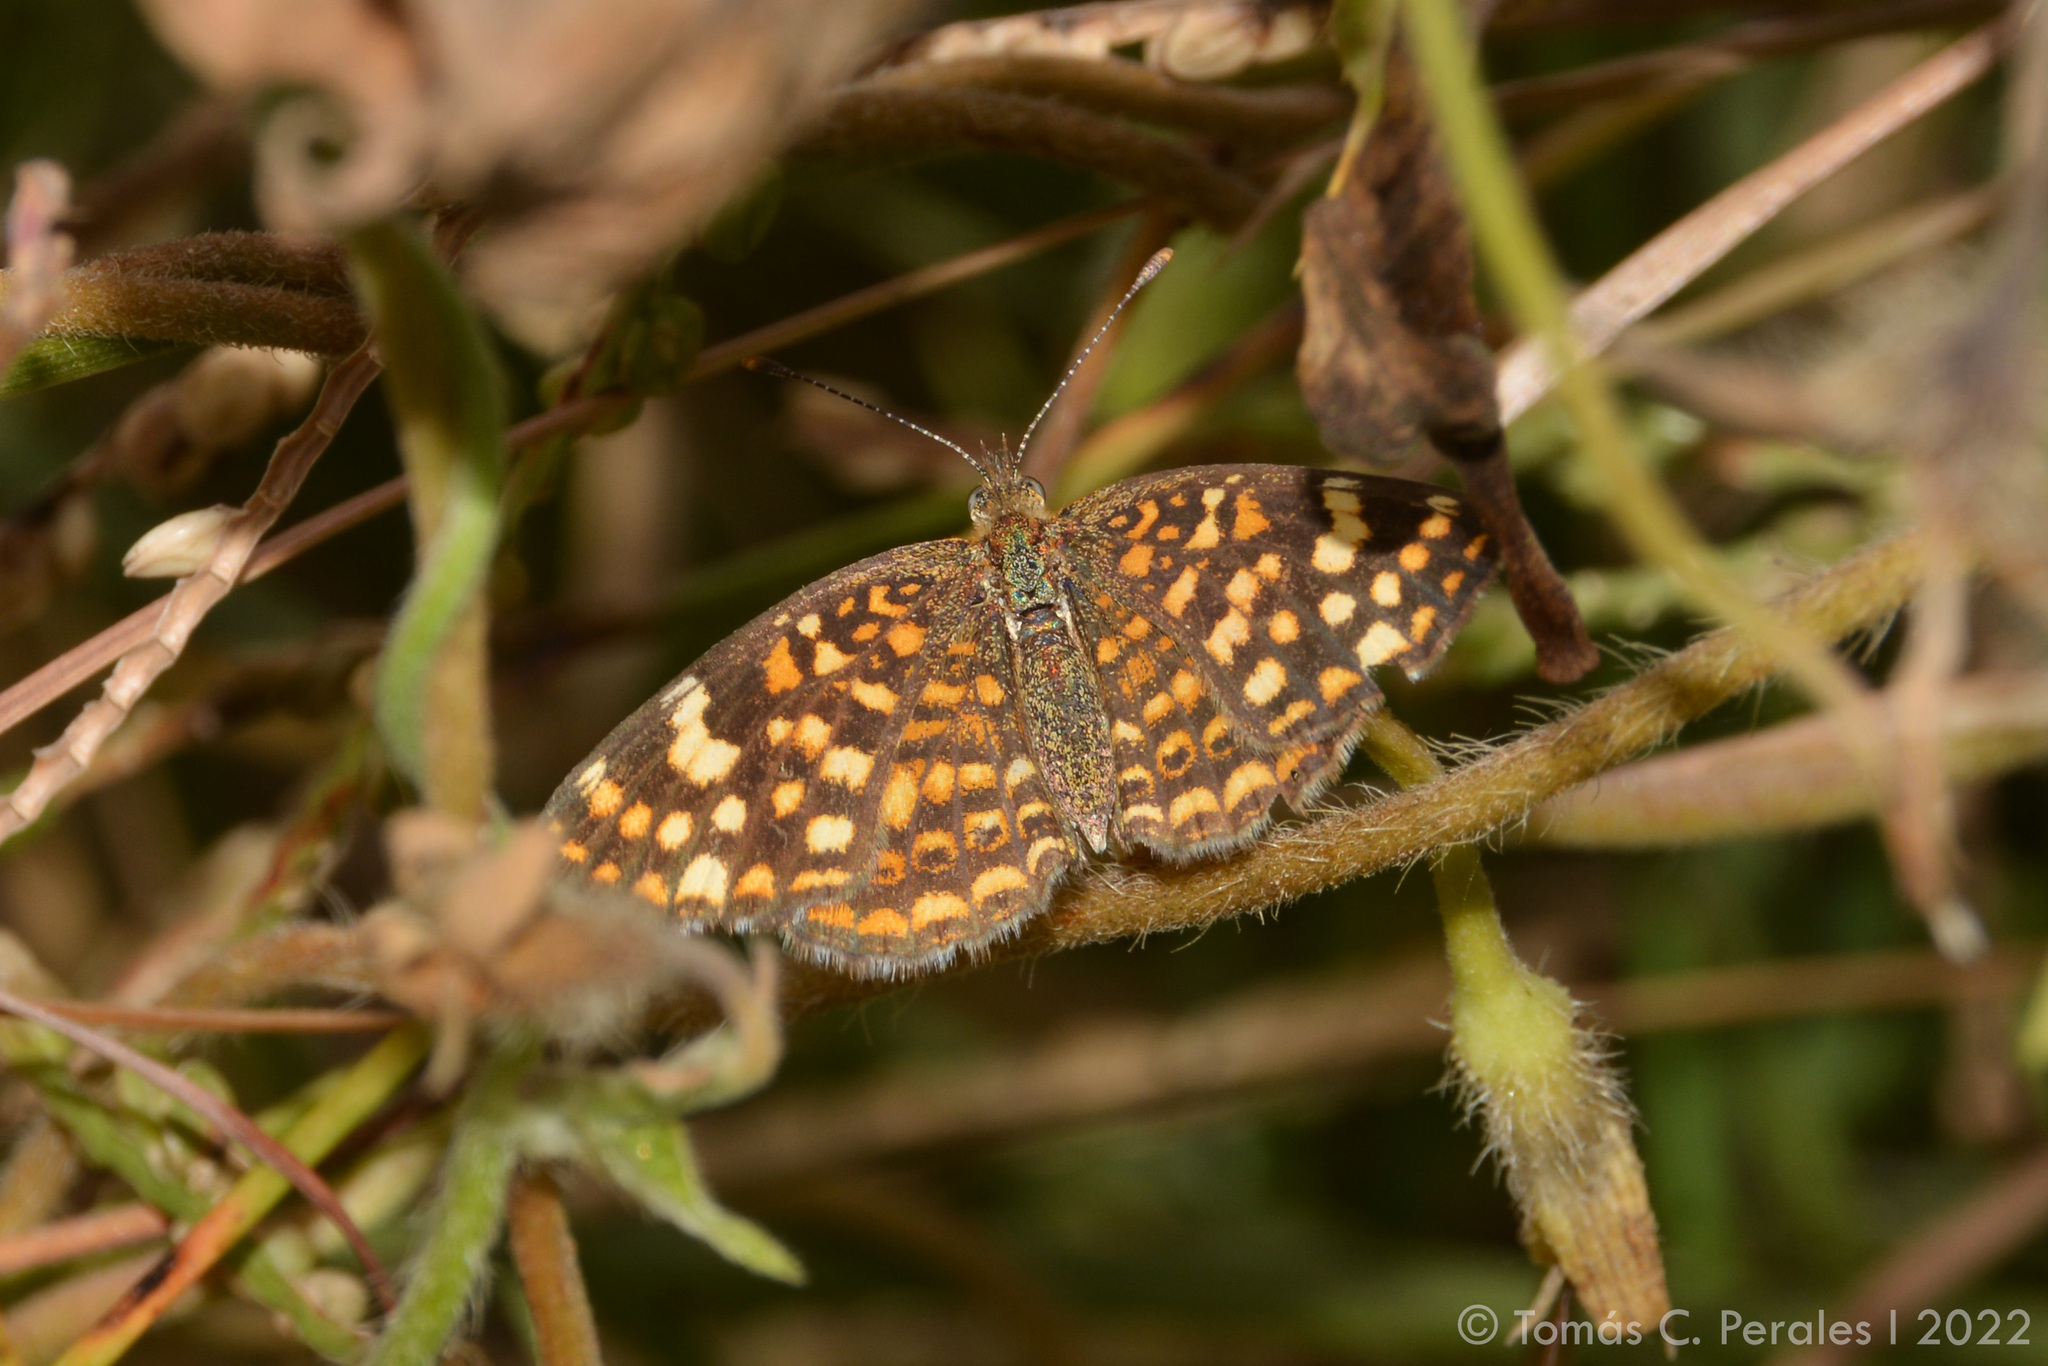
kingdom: Animalia
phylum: Arthropoda
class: Insecta
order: Lepidoptera
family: Nymphalidae
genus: Phystis
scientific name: Phystis simois
